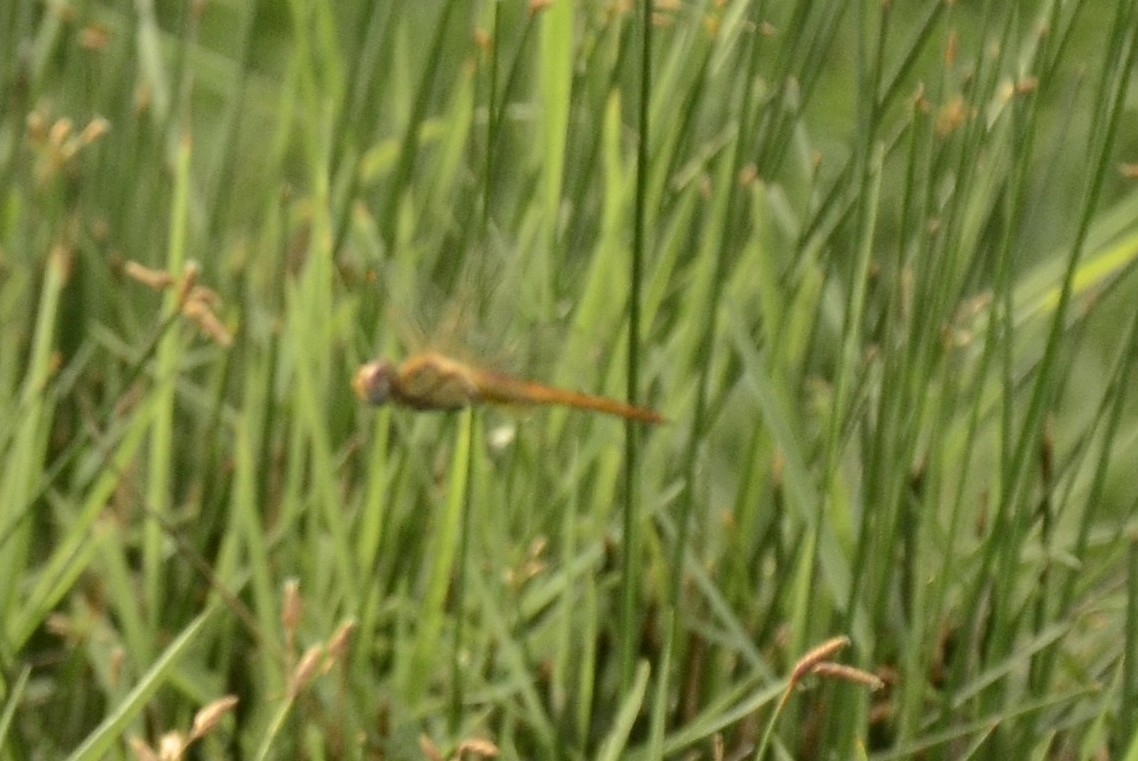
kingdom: Animalia
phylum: Arthropoda
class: Insecta
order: Odonata
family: Libellulidae
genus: Pantala
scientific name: Pantala flavescens
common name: Wandering glider
